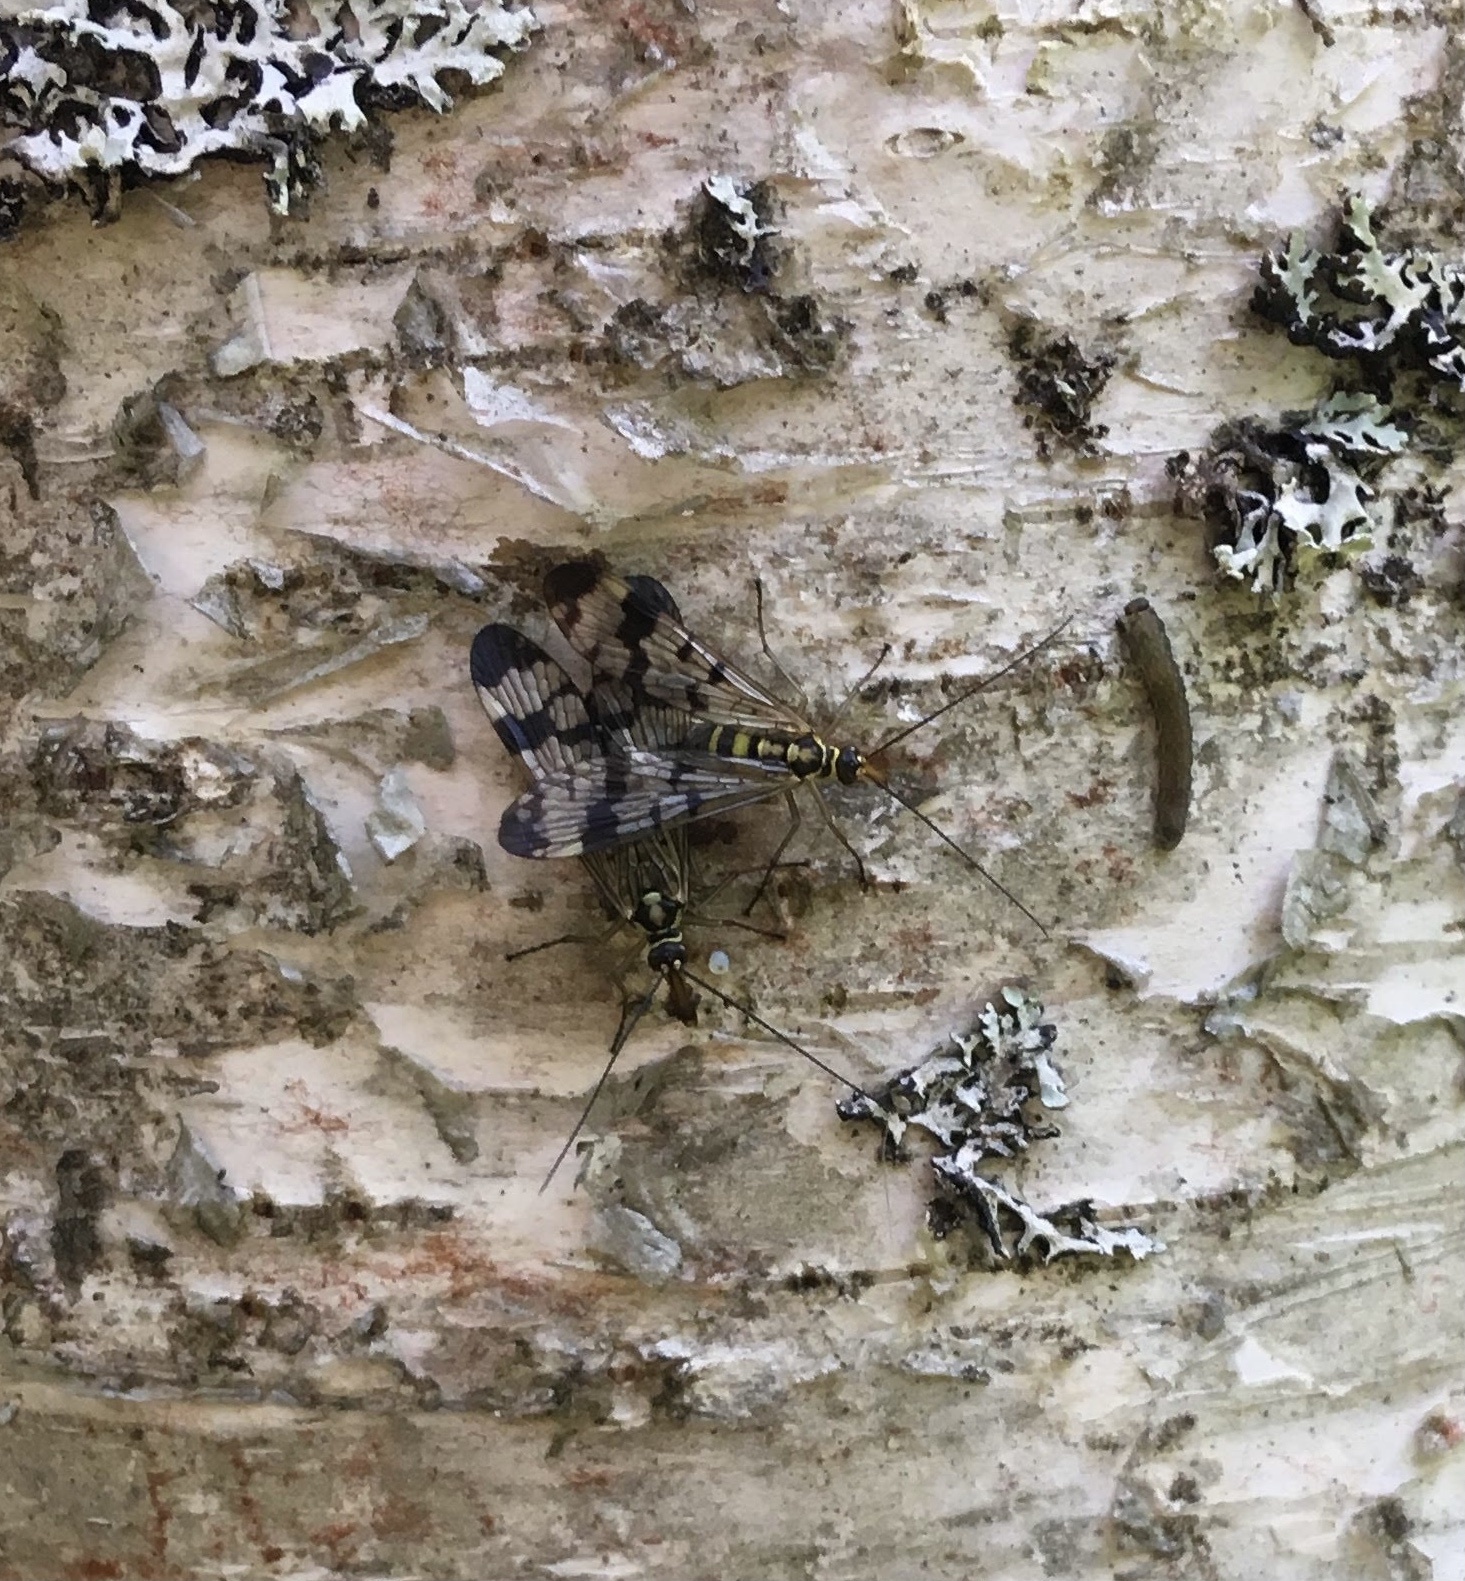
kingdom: Animalia
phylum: Arthropoda
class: Insecta
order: Mecoptera
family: Panorpidae
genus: Panorpa
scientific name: Panorpa communis
